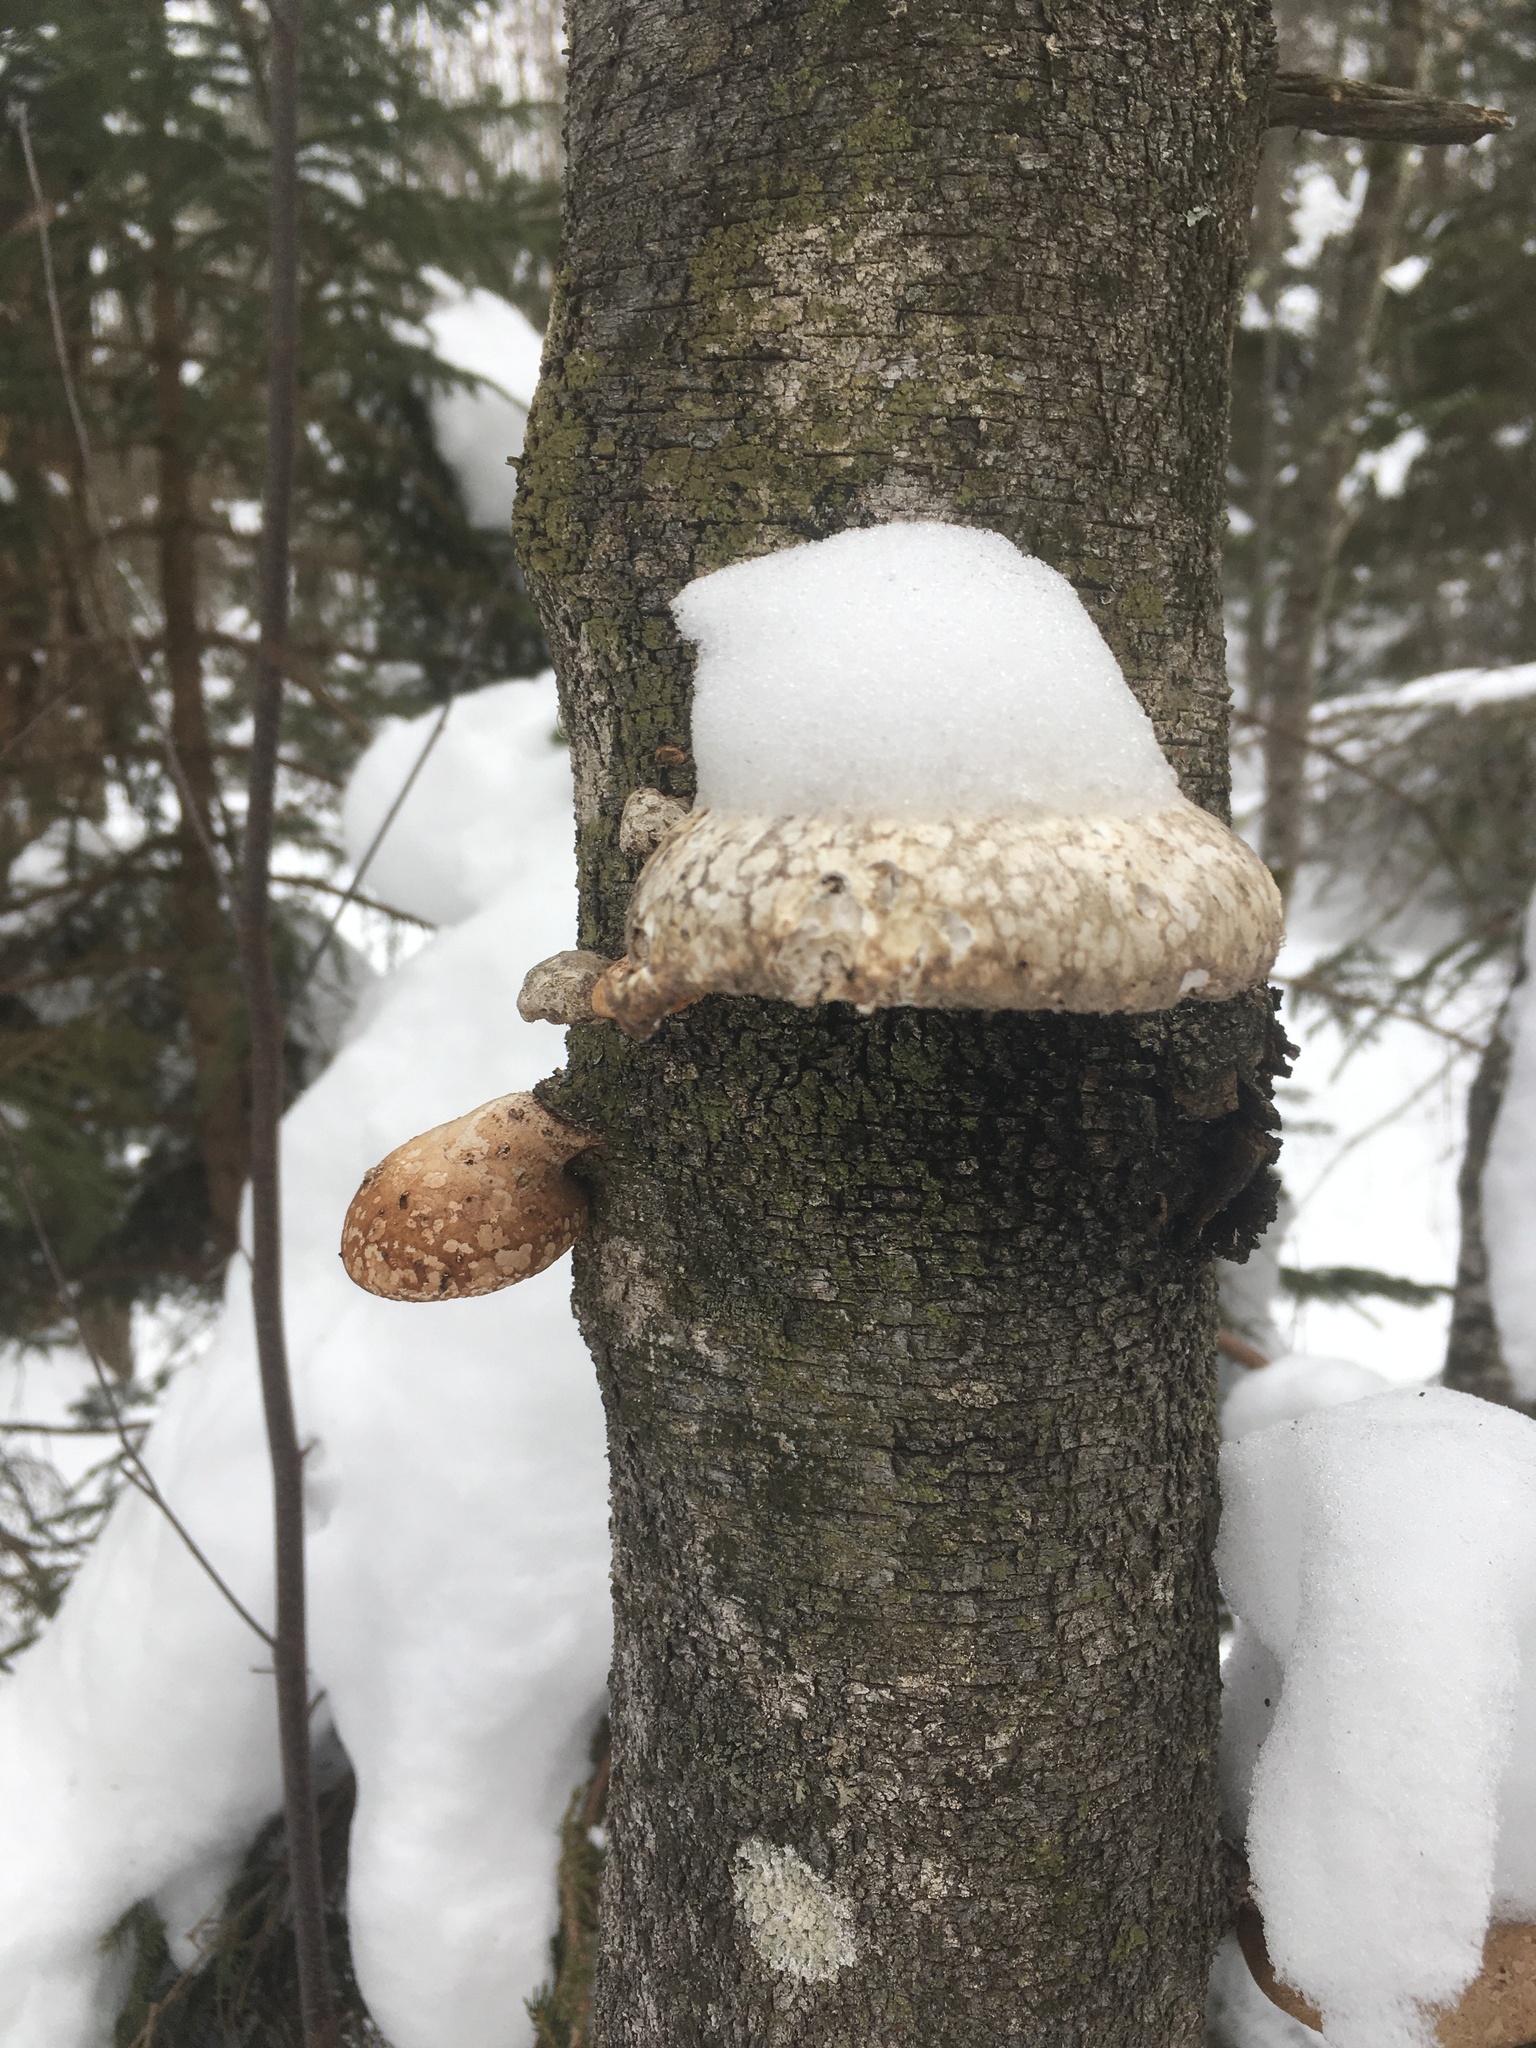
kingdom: Fungi
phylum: Basidiomycota
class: Agaricomycetes
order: Polyporales
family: Fomitopsidaceae
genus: Fomitopsis
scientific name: Fomitopsis betulina
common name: Birch polypore
